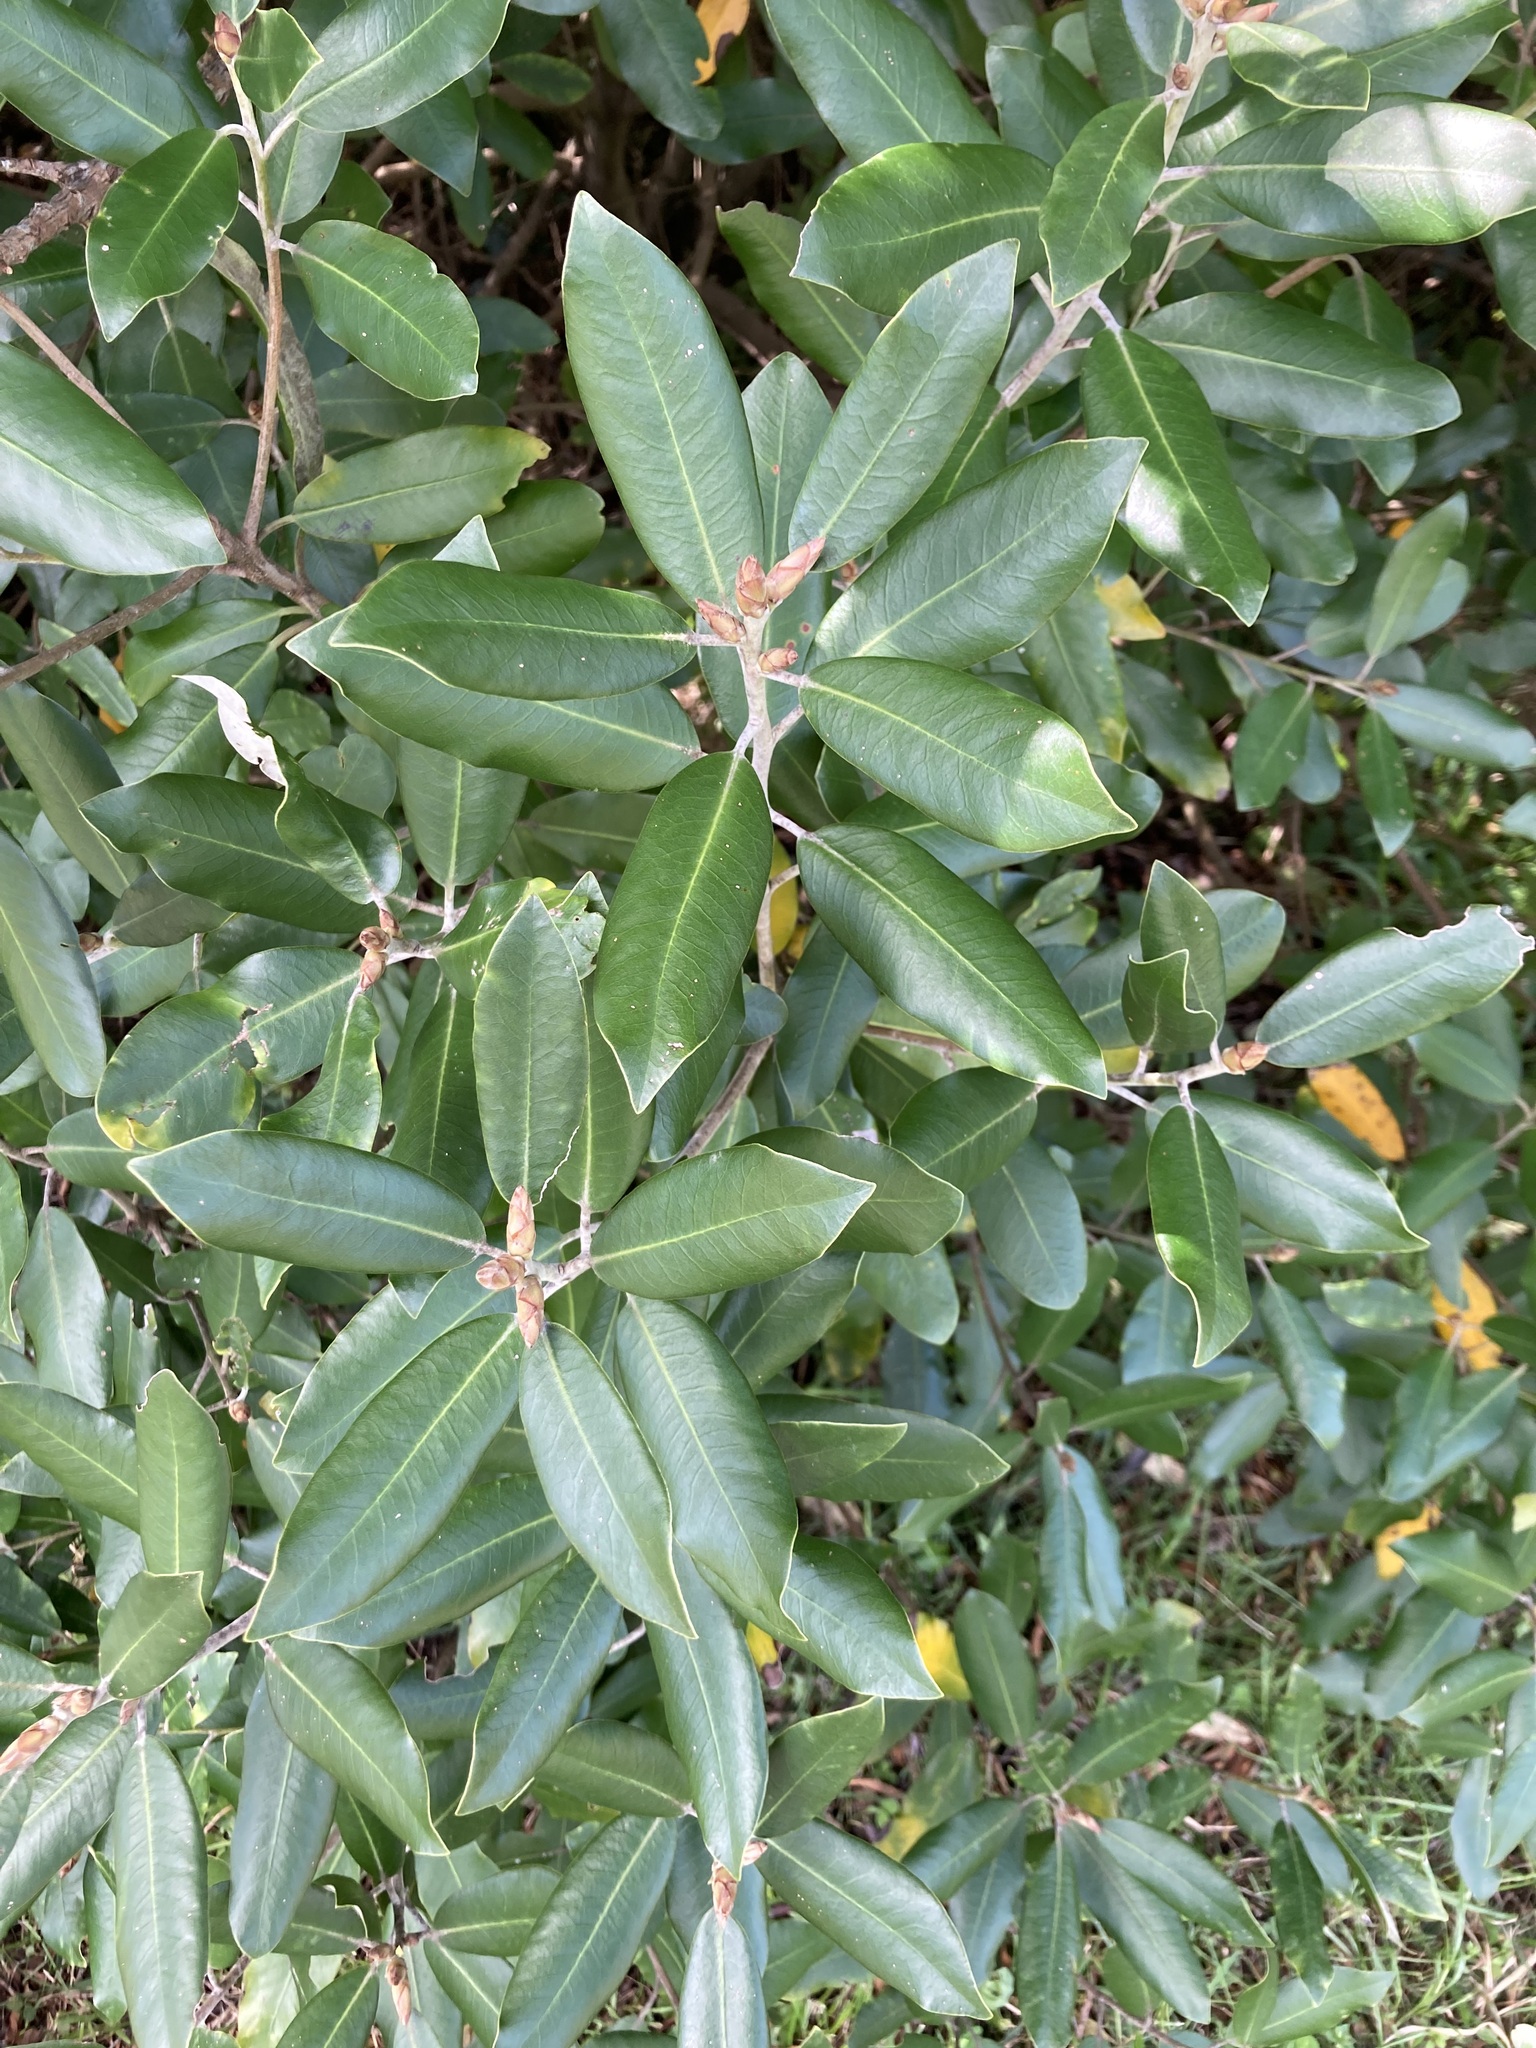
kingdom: Plantae
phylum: Tracheophyta
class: Magnoliopsida
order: Apiales
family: Pittosporaceae
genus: Pittosporum
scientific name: Pittosporum ralphii
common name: Ralph's desertwillow
